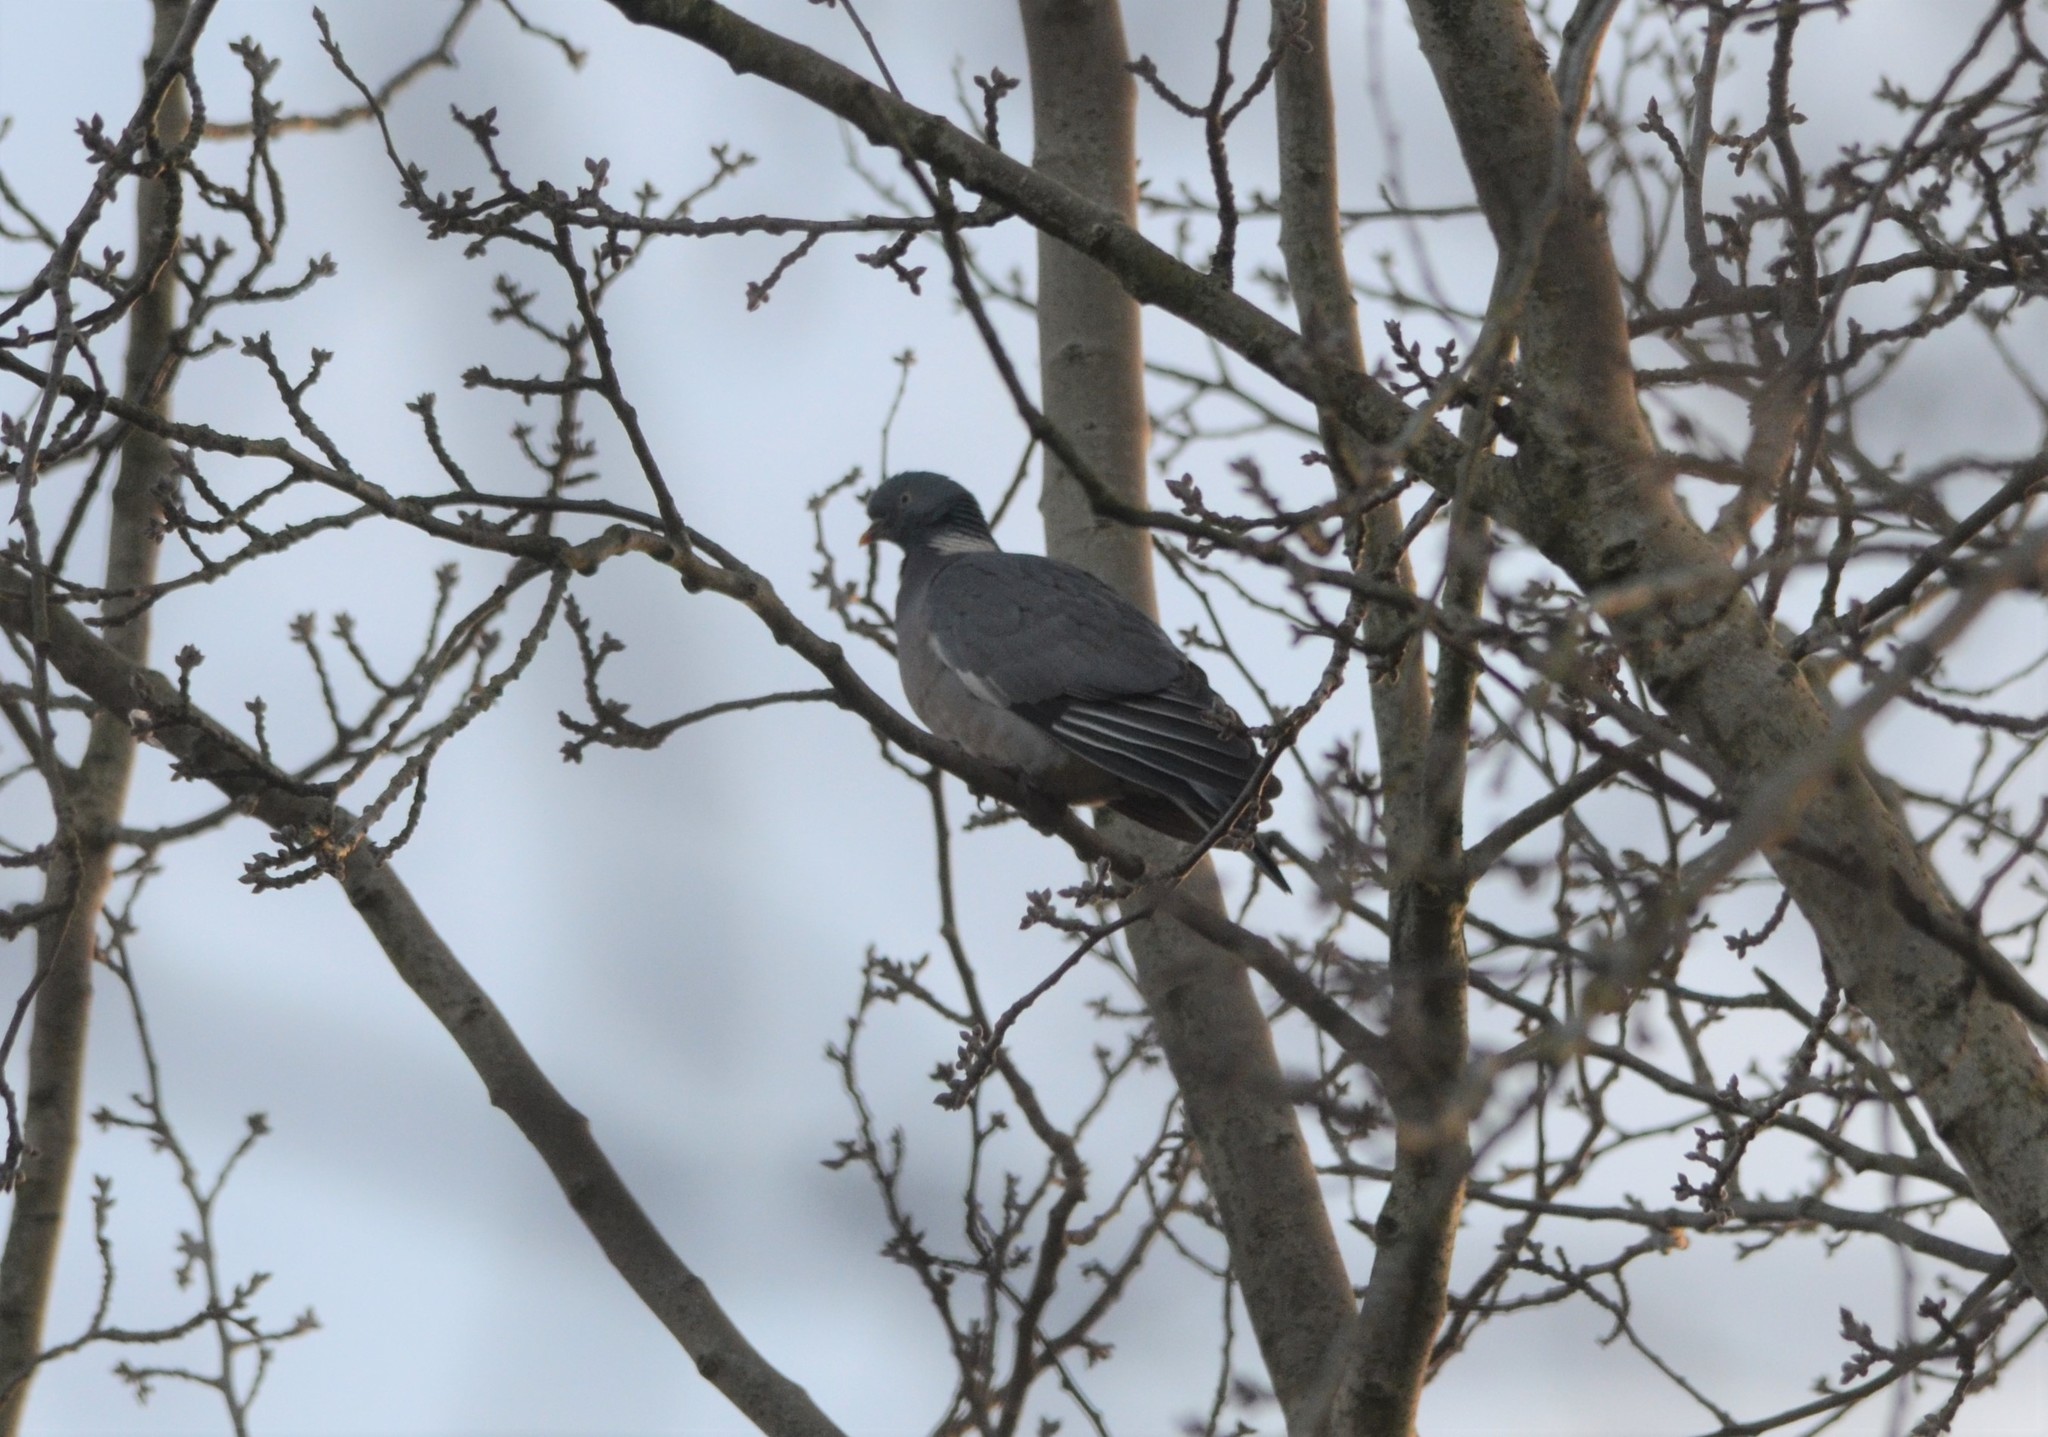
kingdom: Animalia
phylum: Chordata
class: Aves
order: Columbiformes
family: Columbidae
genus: Columba
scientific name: Columba palumbus
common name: Common wood pigeon
